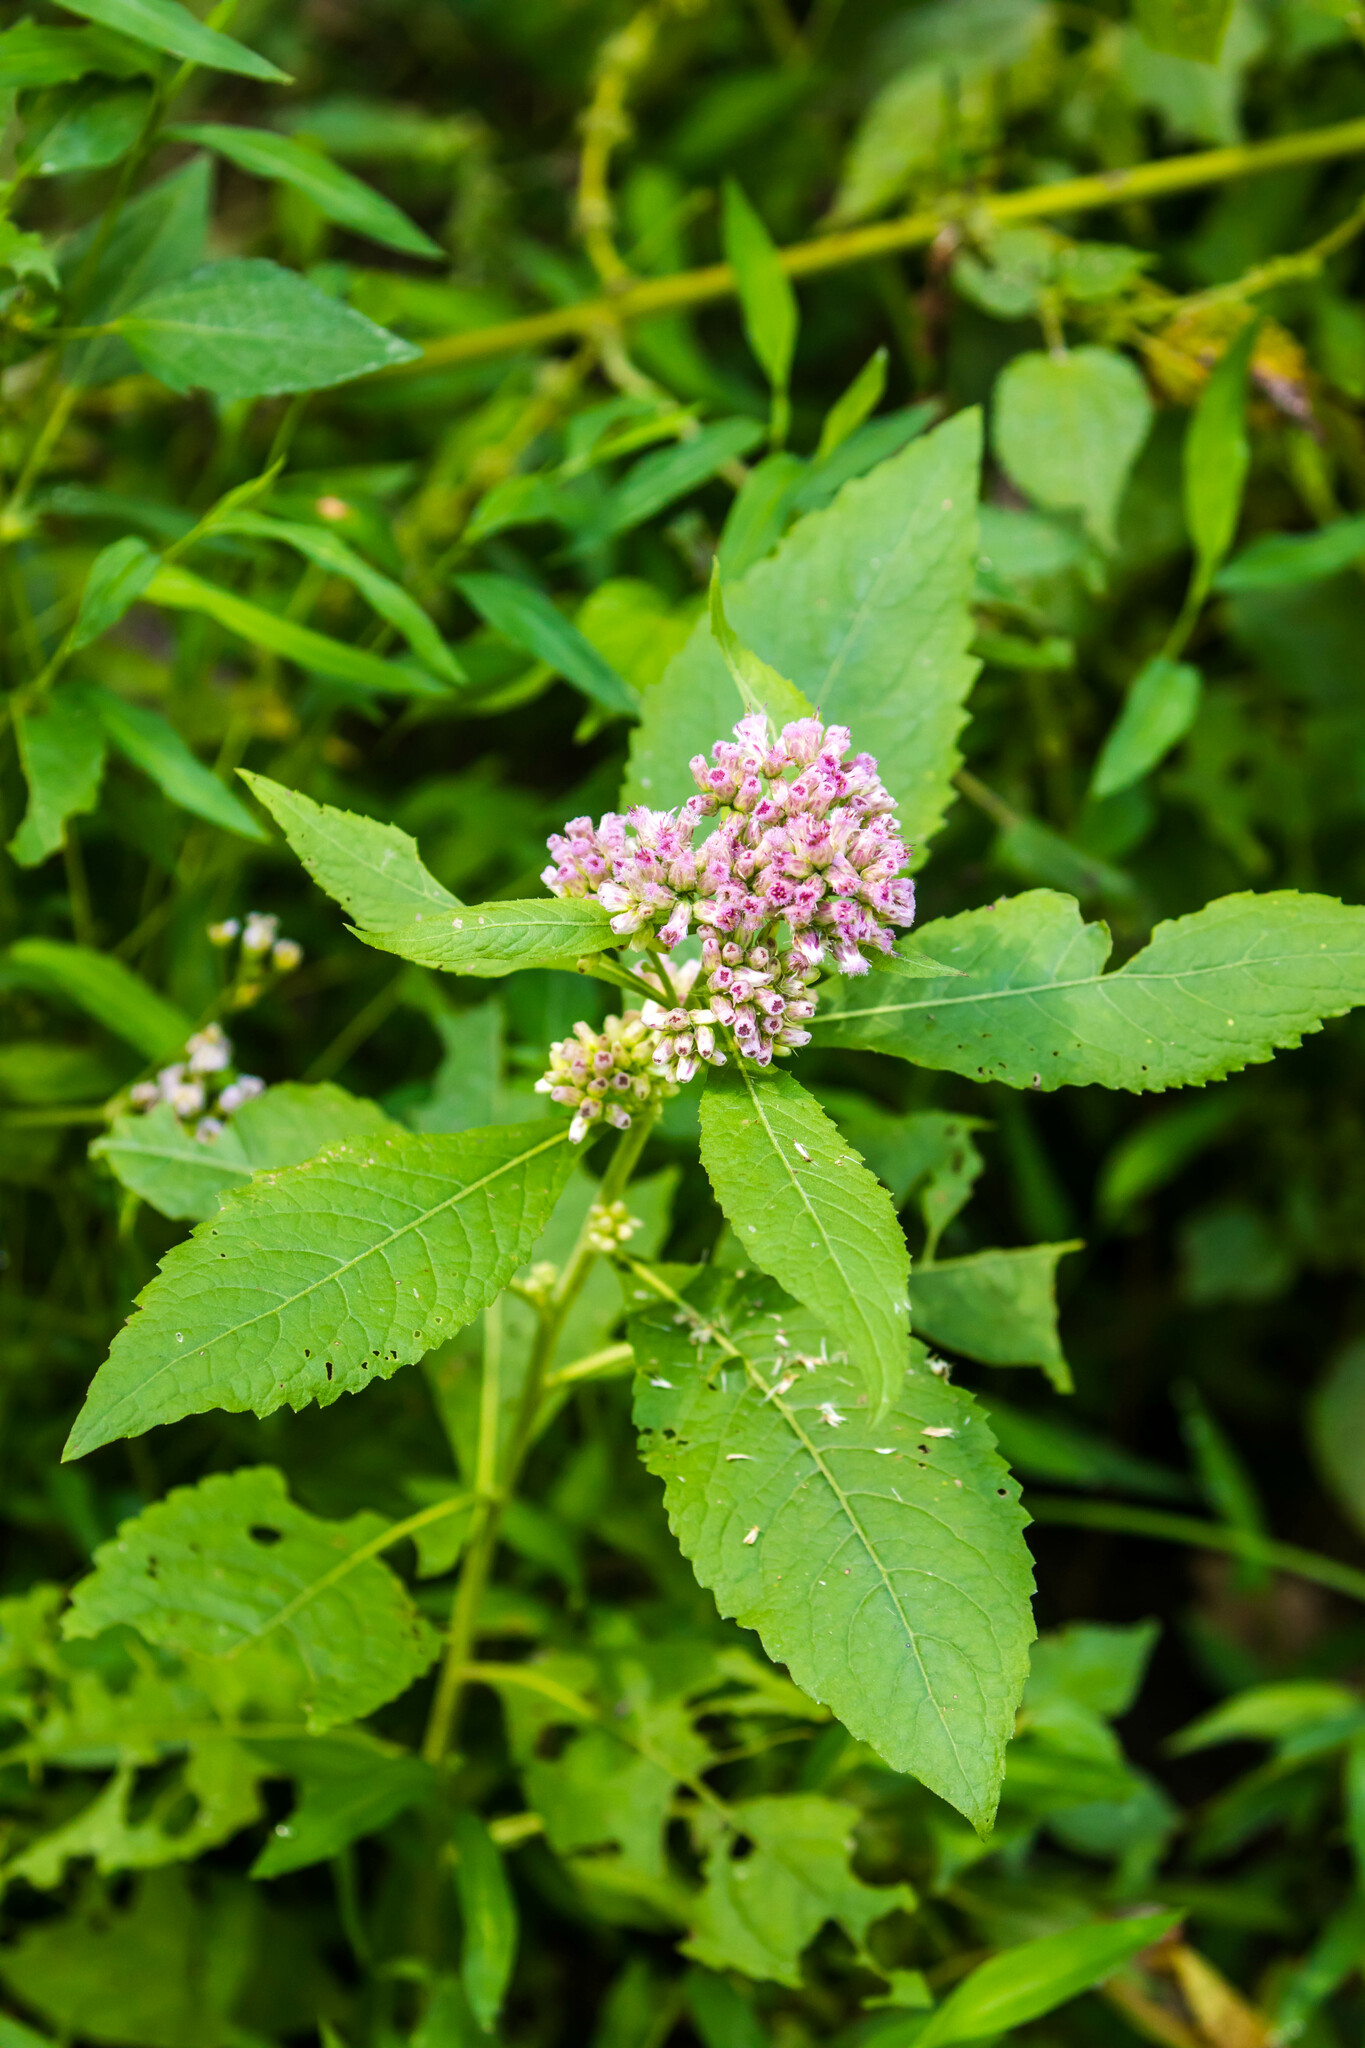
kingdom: Plantae
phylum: Tracheophyta
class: Magnoliopsida
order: Asterales
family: Asteraceae
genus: Pluchea
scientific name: Pluchea camphorata
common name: Camphor pluchea
